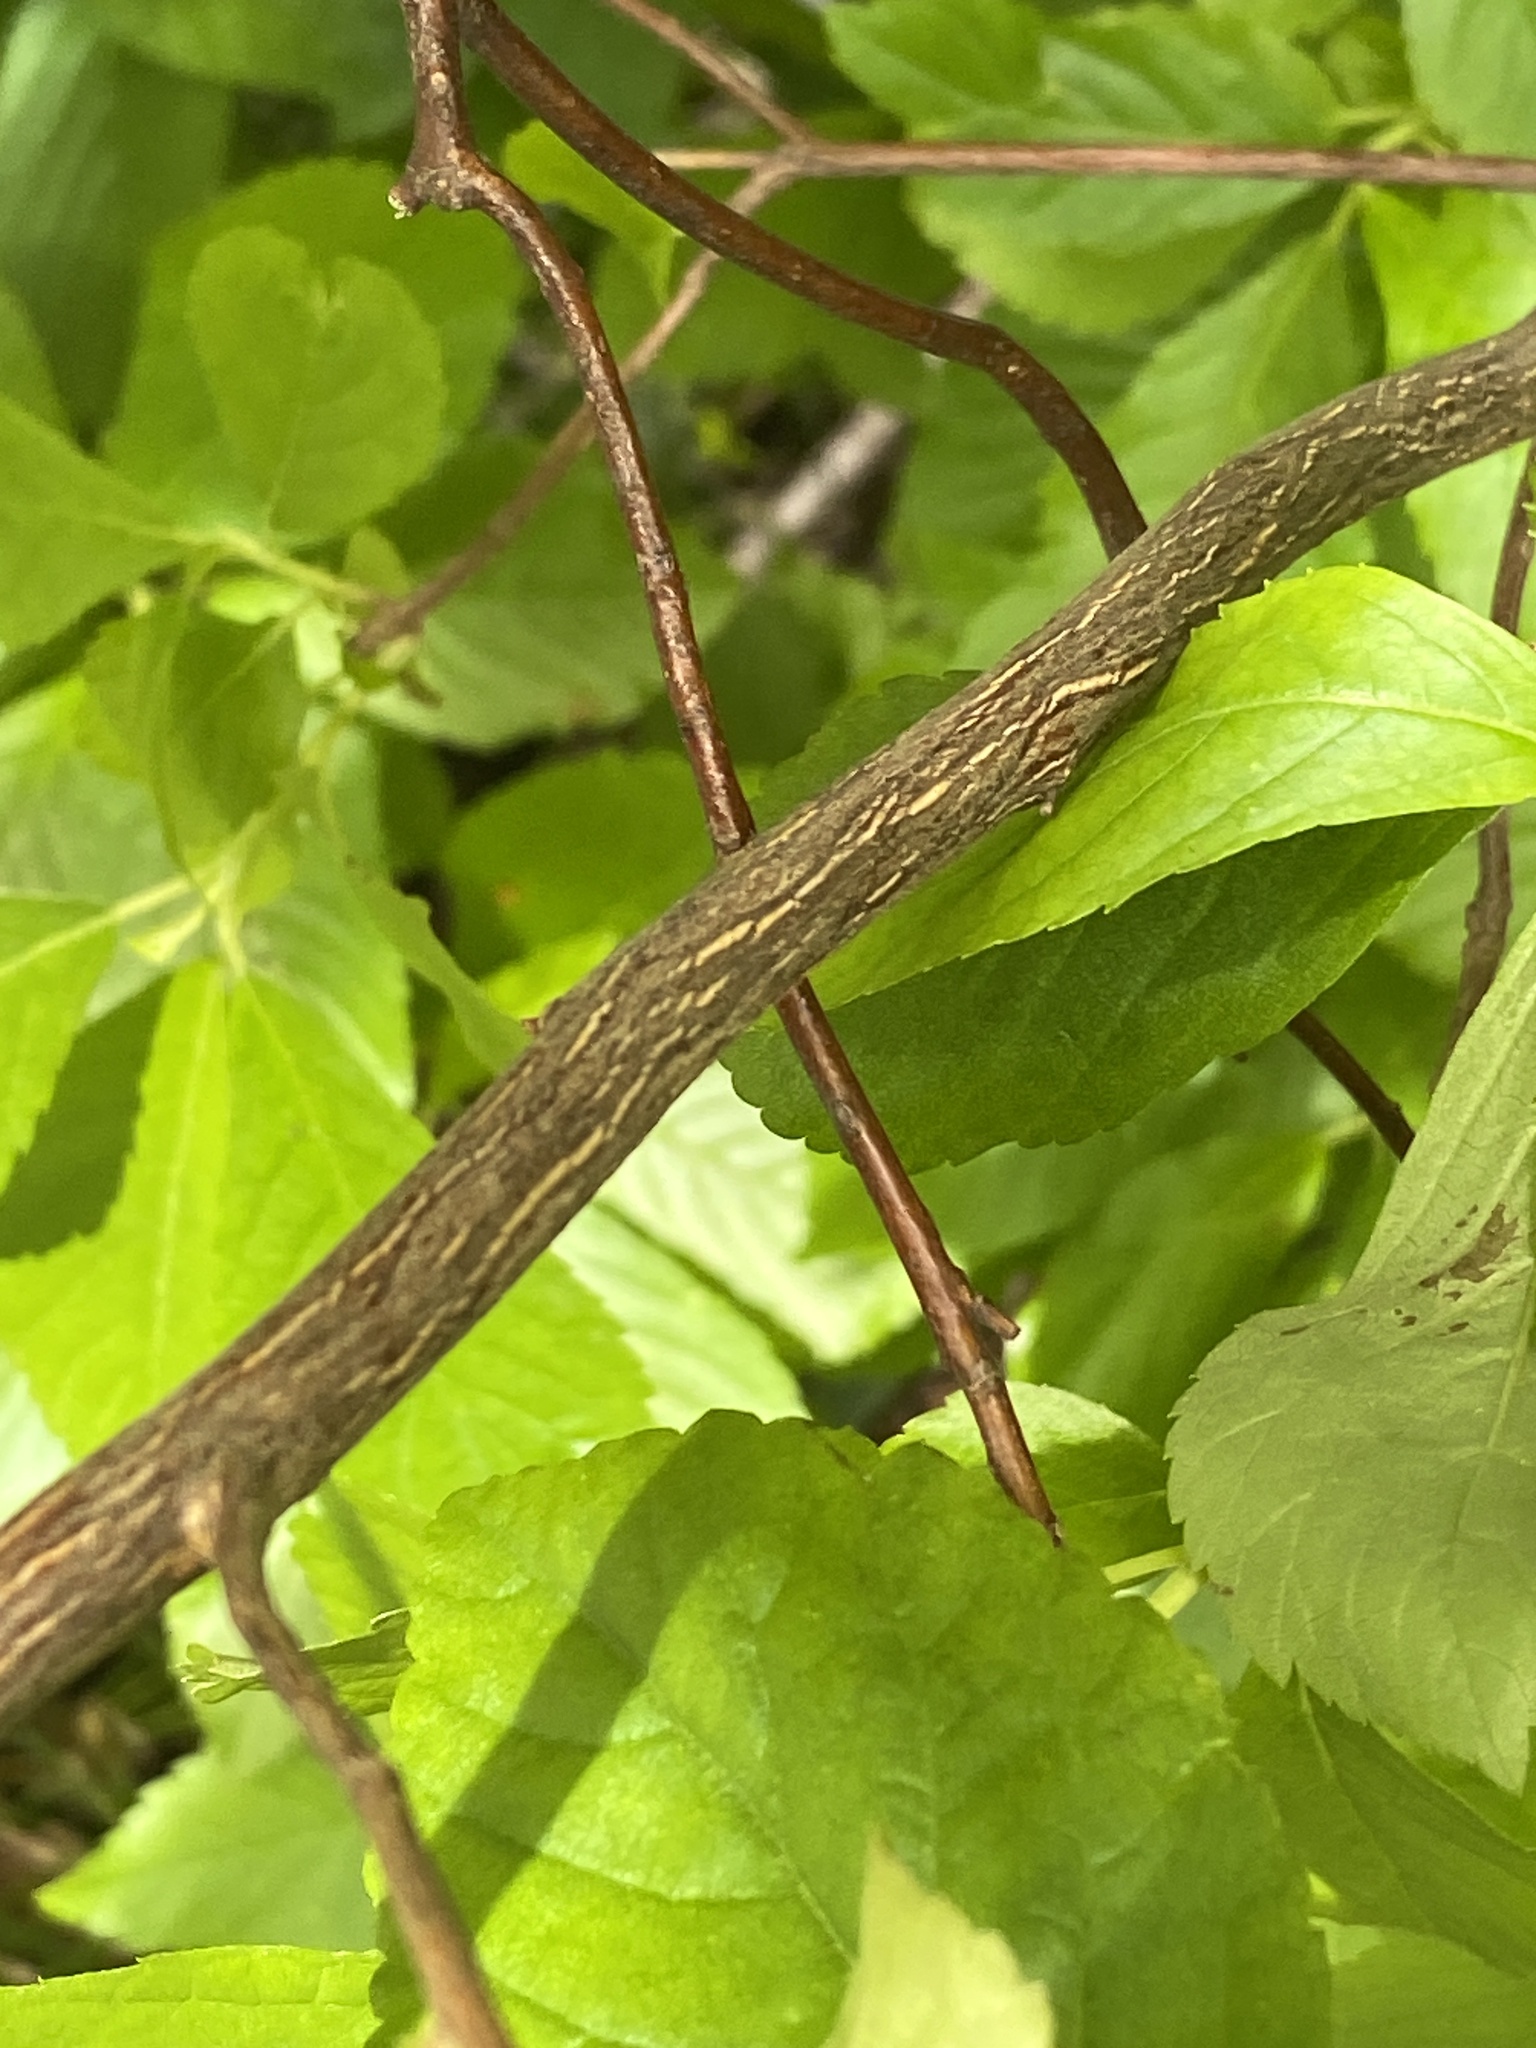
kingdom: Plantae
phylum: Tracheophyta
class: Magnoliopsida
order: Cornales
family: Cornaceae
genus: Cornus
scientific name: Cornus amomum
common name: Silky dogwood
